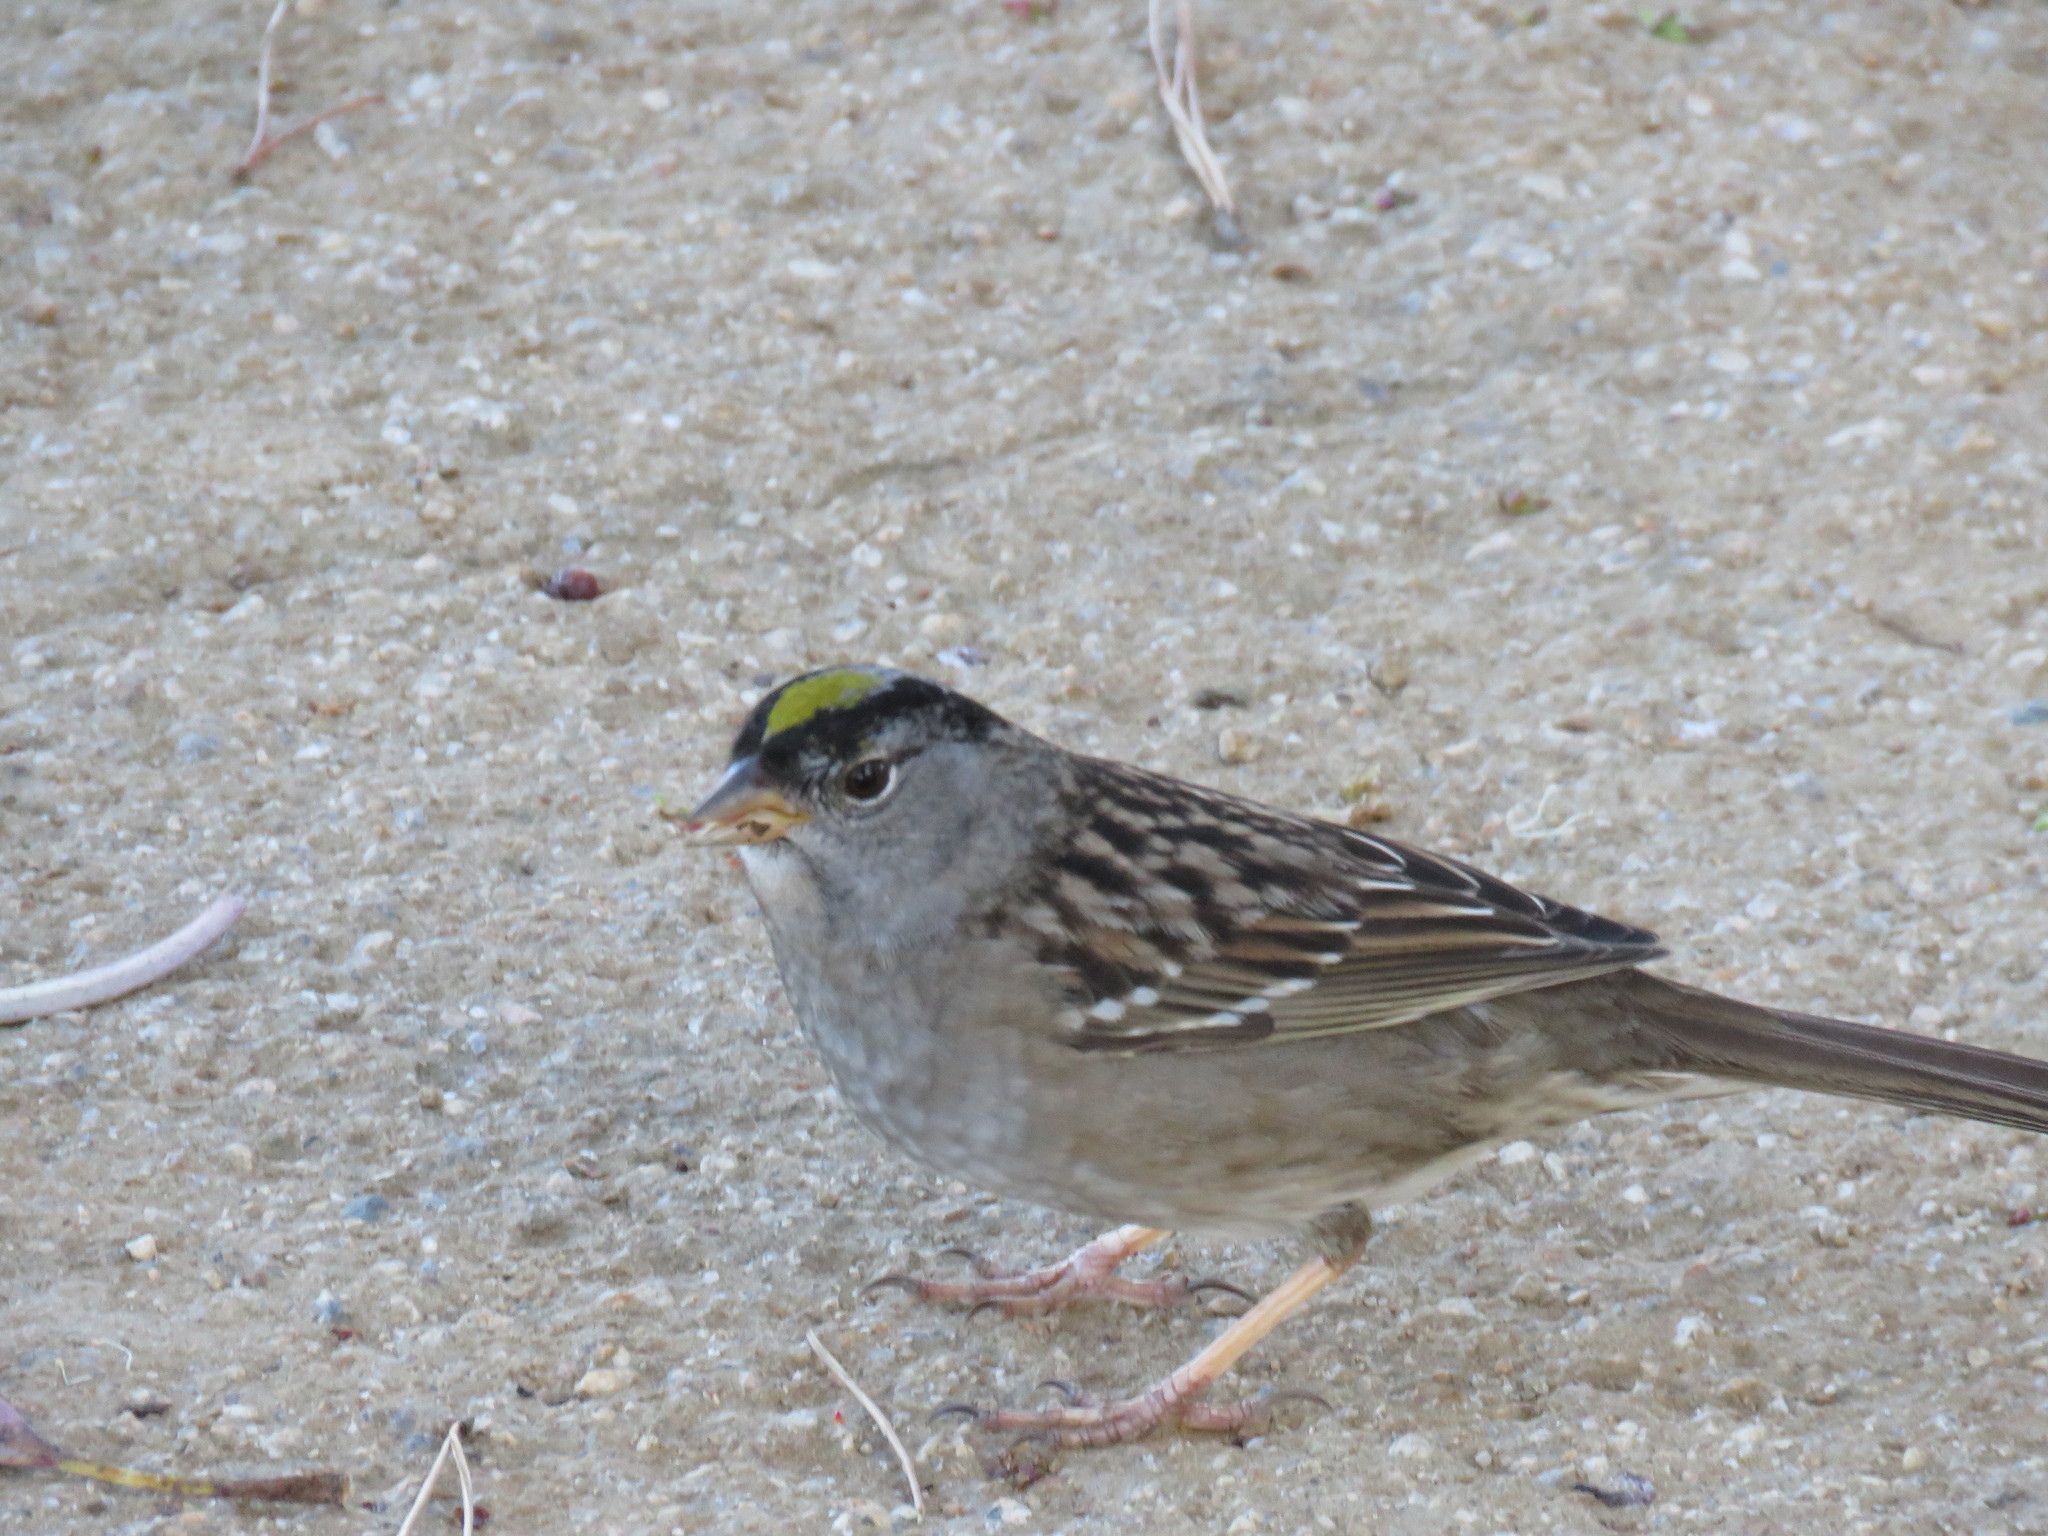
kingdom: Animalia
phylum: Chordata
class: Aves
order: Passeriformes
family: Passerellidae
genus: Zonotrichia
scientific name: Zonotrichia atricapilla
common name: Golden-crowned sparrow
